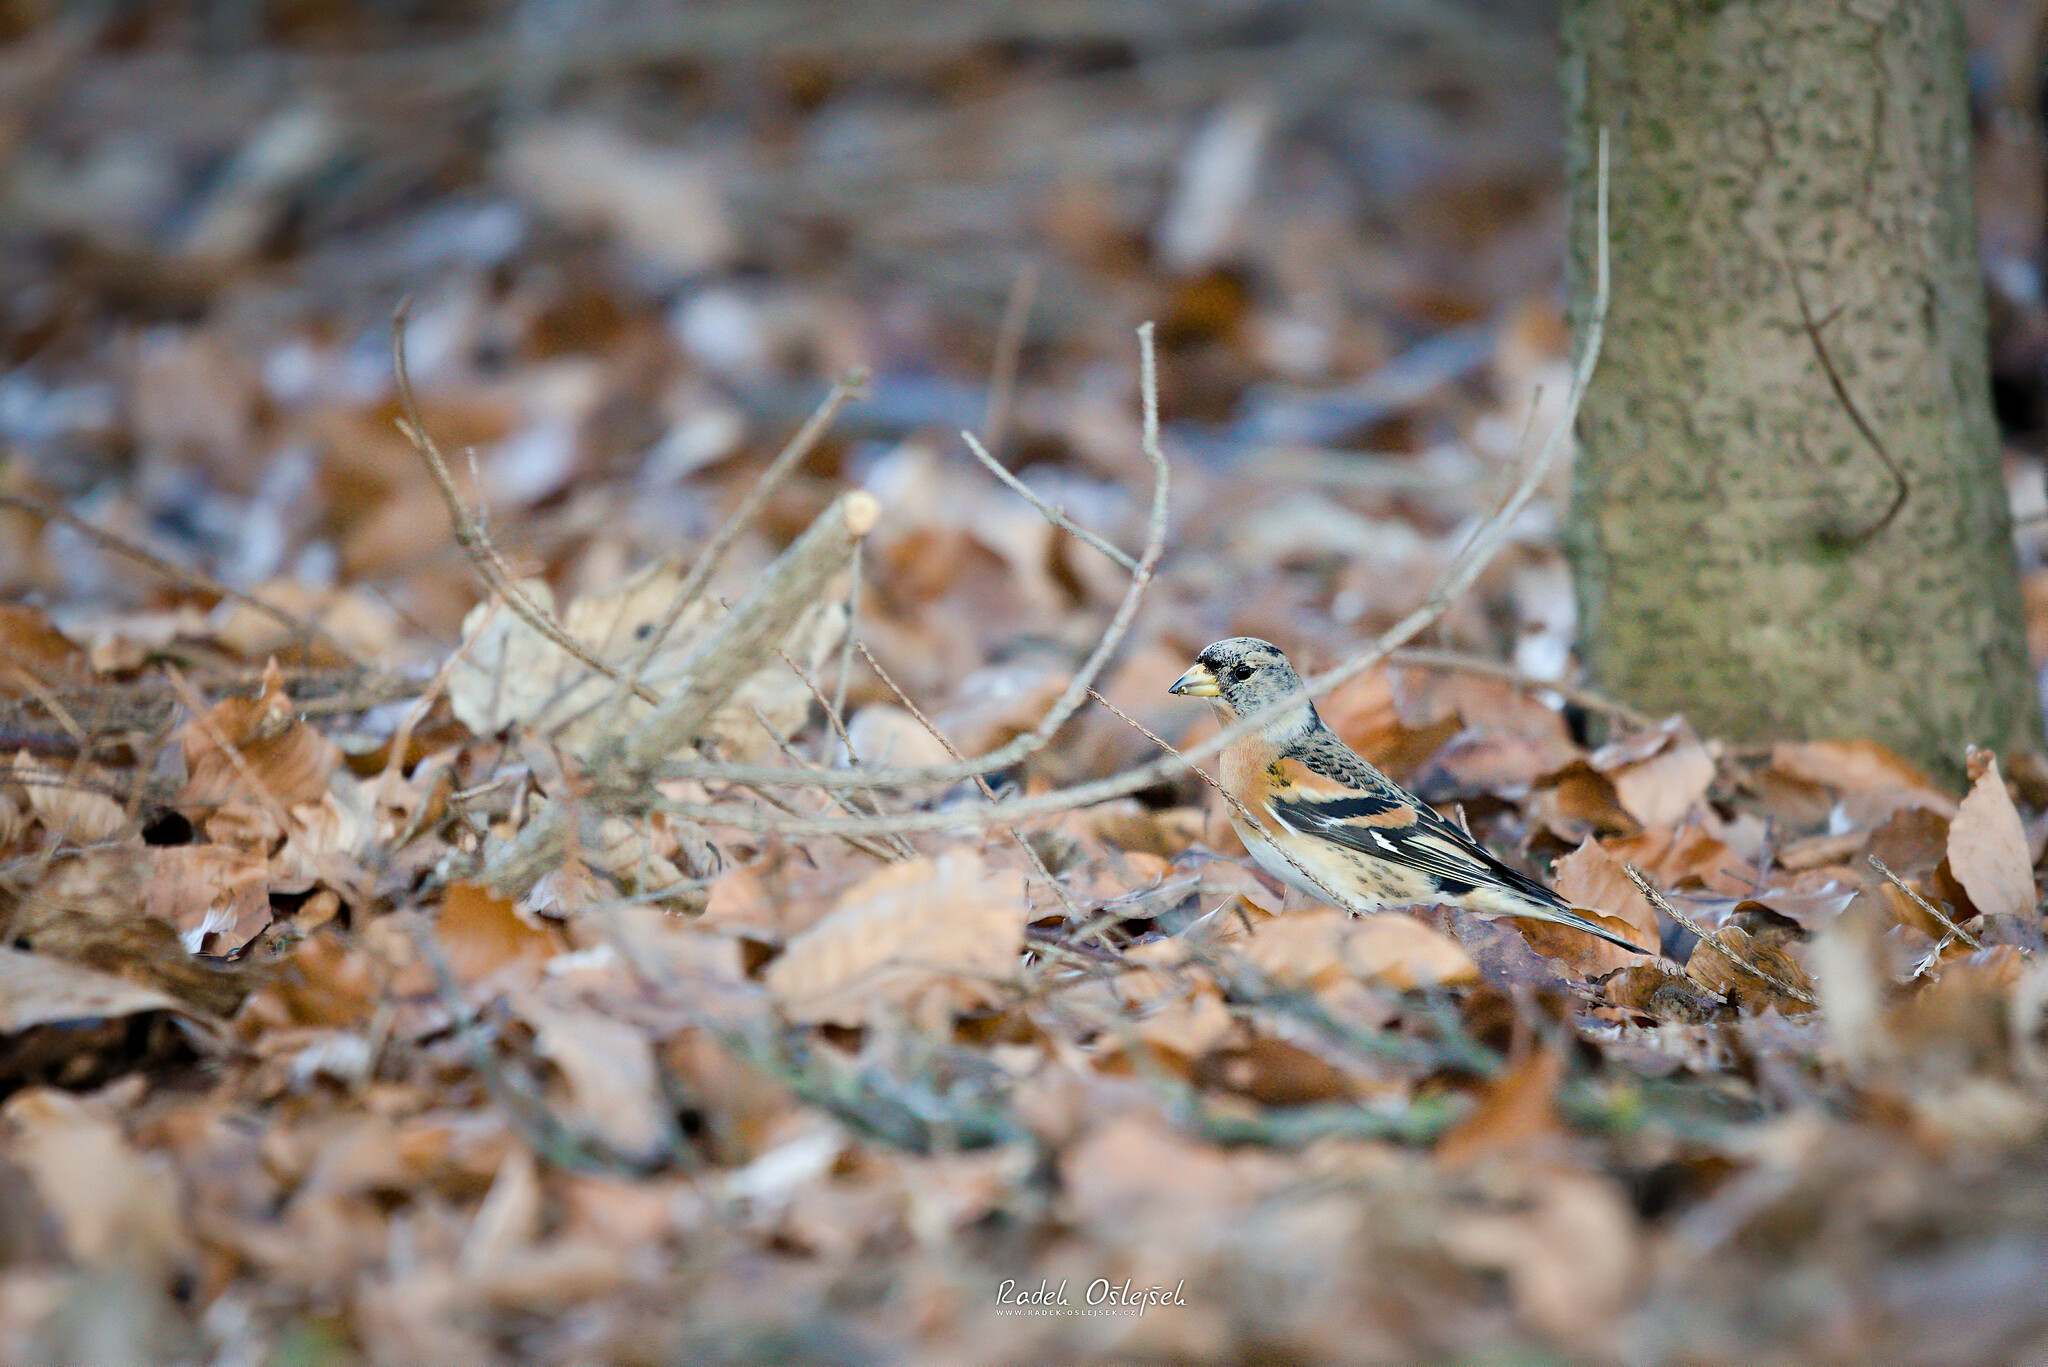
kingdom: Animalia
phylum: Chordata
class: Aves
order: Passeriformes
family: Fringillidae
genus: Fringilla
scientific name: Fringilla montifringilla
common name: Brambling
